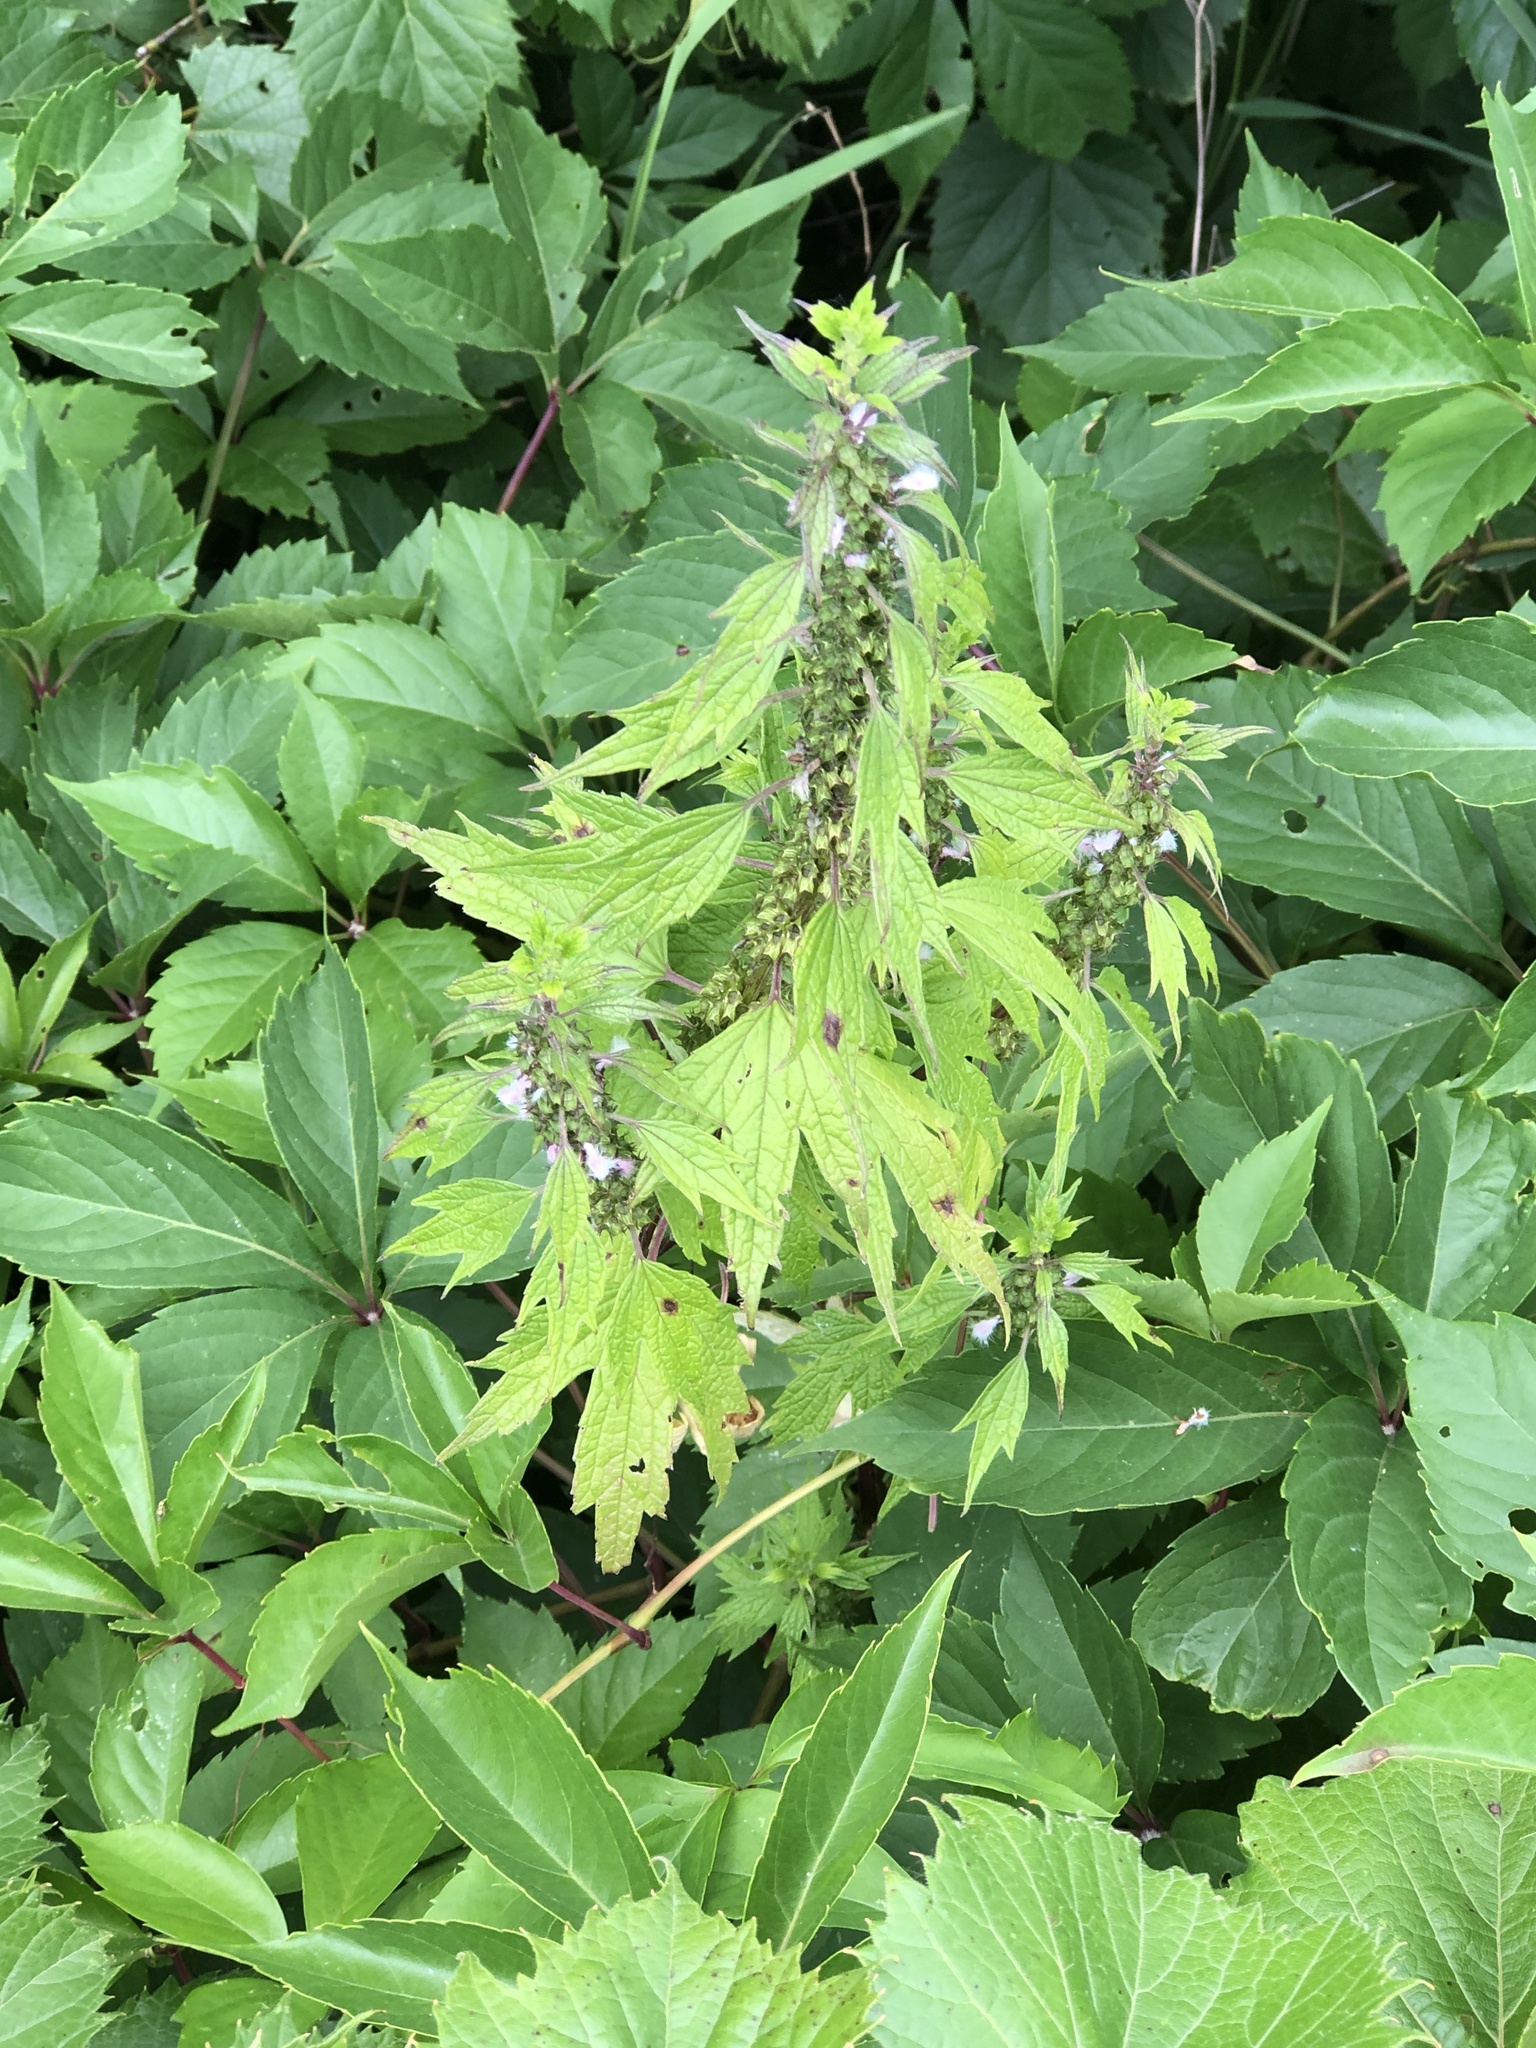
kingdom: Plantae
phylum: Tracheophyta
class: Magnoliopsida
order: Lamiales
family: Lamiaceae
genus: Leonurus
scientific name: Leonurus cardiaca
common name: Motherwort
